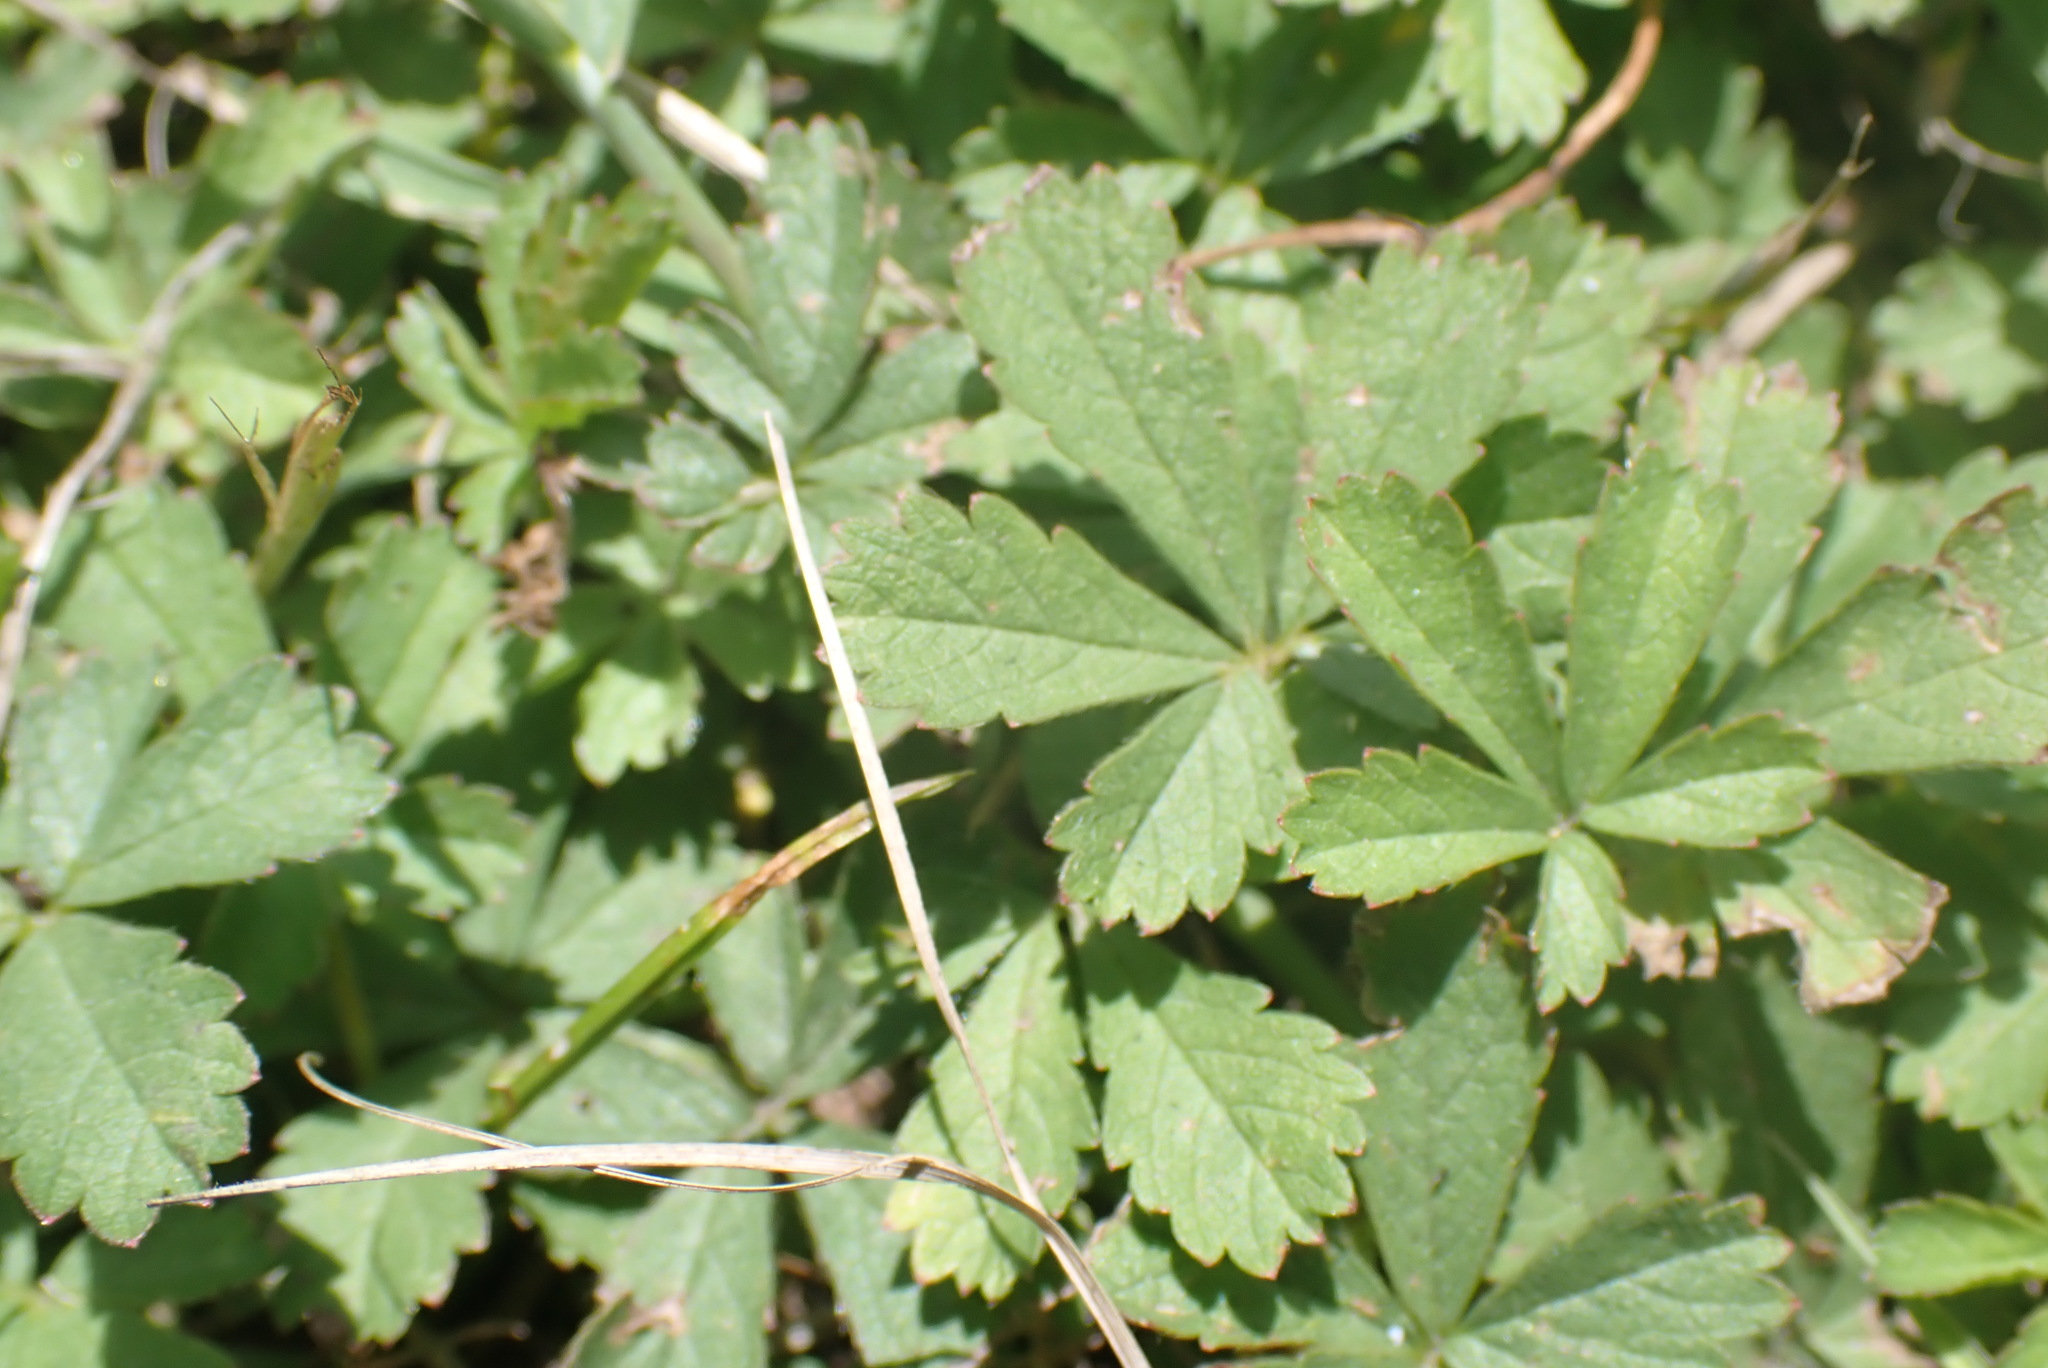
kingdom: Plantae
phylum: Tracheophyta
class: Magnoliopsida
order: Rosales
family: Rosaceae
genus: Potentilla
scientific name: Potentilla reptans
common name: Creeping cinquefoil
